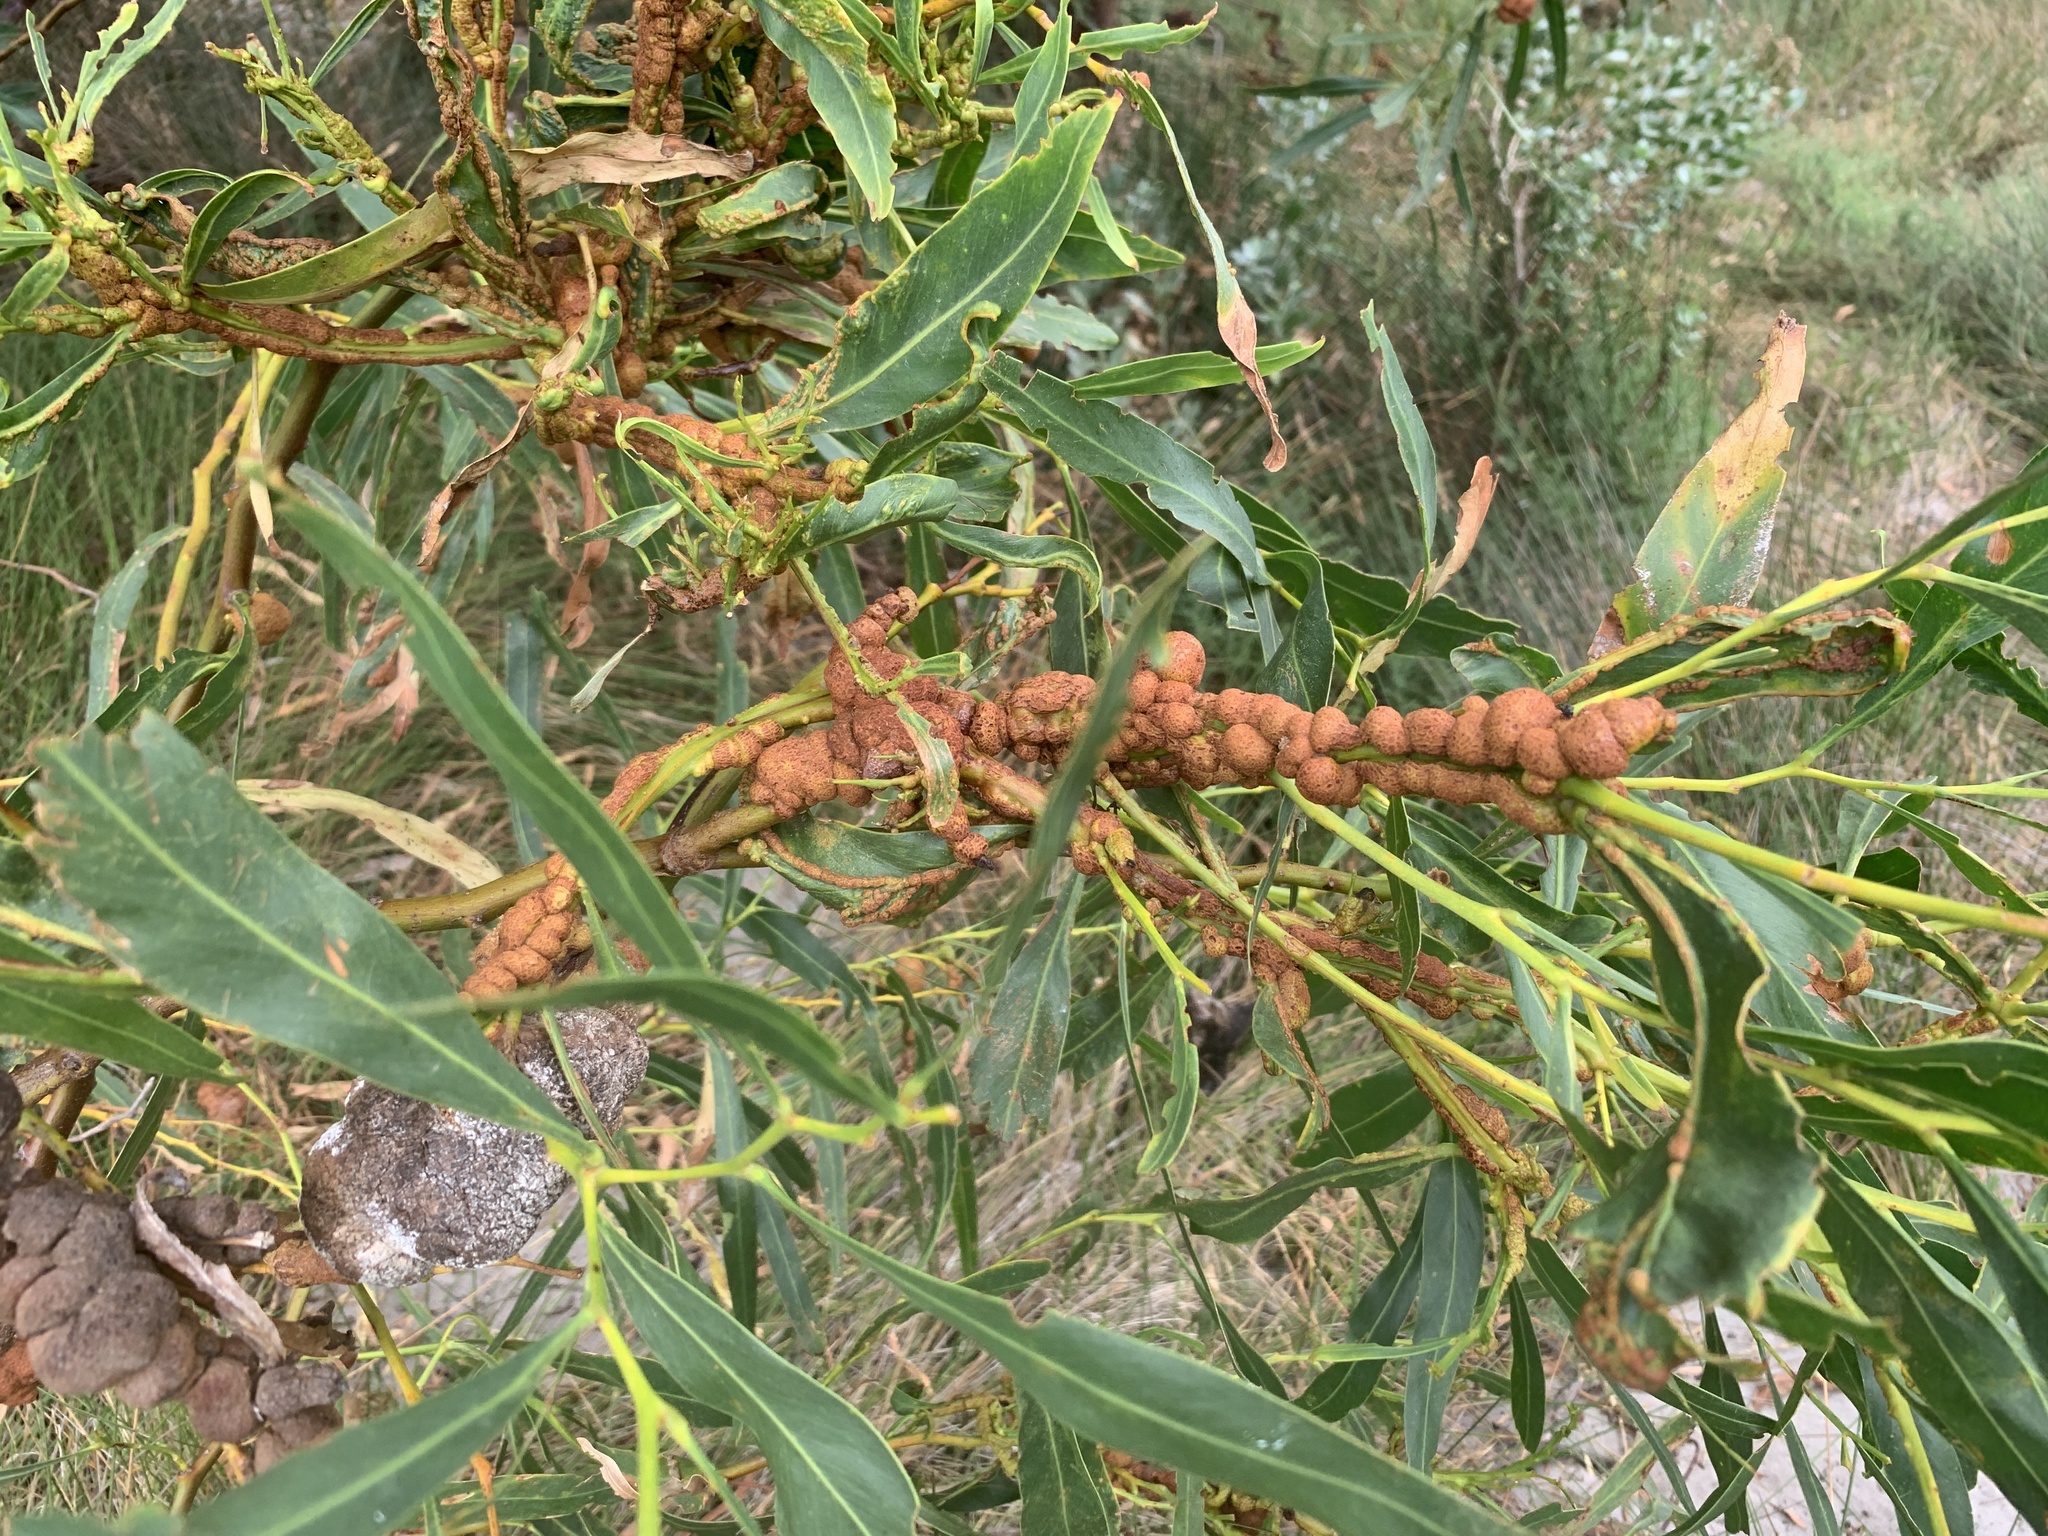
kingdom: Plantae
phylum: Tracheophyta
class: Magnoliopsida
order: Fabales
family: Fabaceae
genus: Acacia
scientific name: Acacia saligna
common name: Orange wattle
